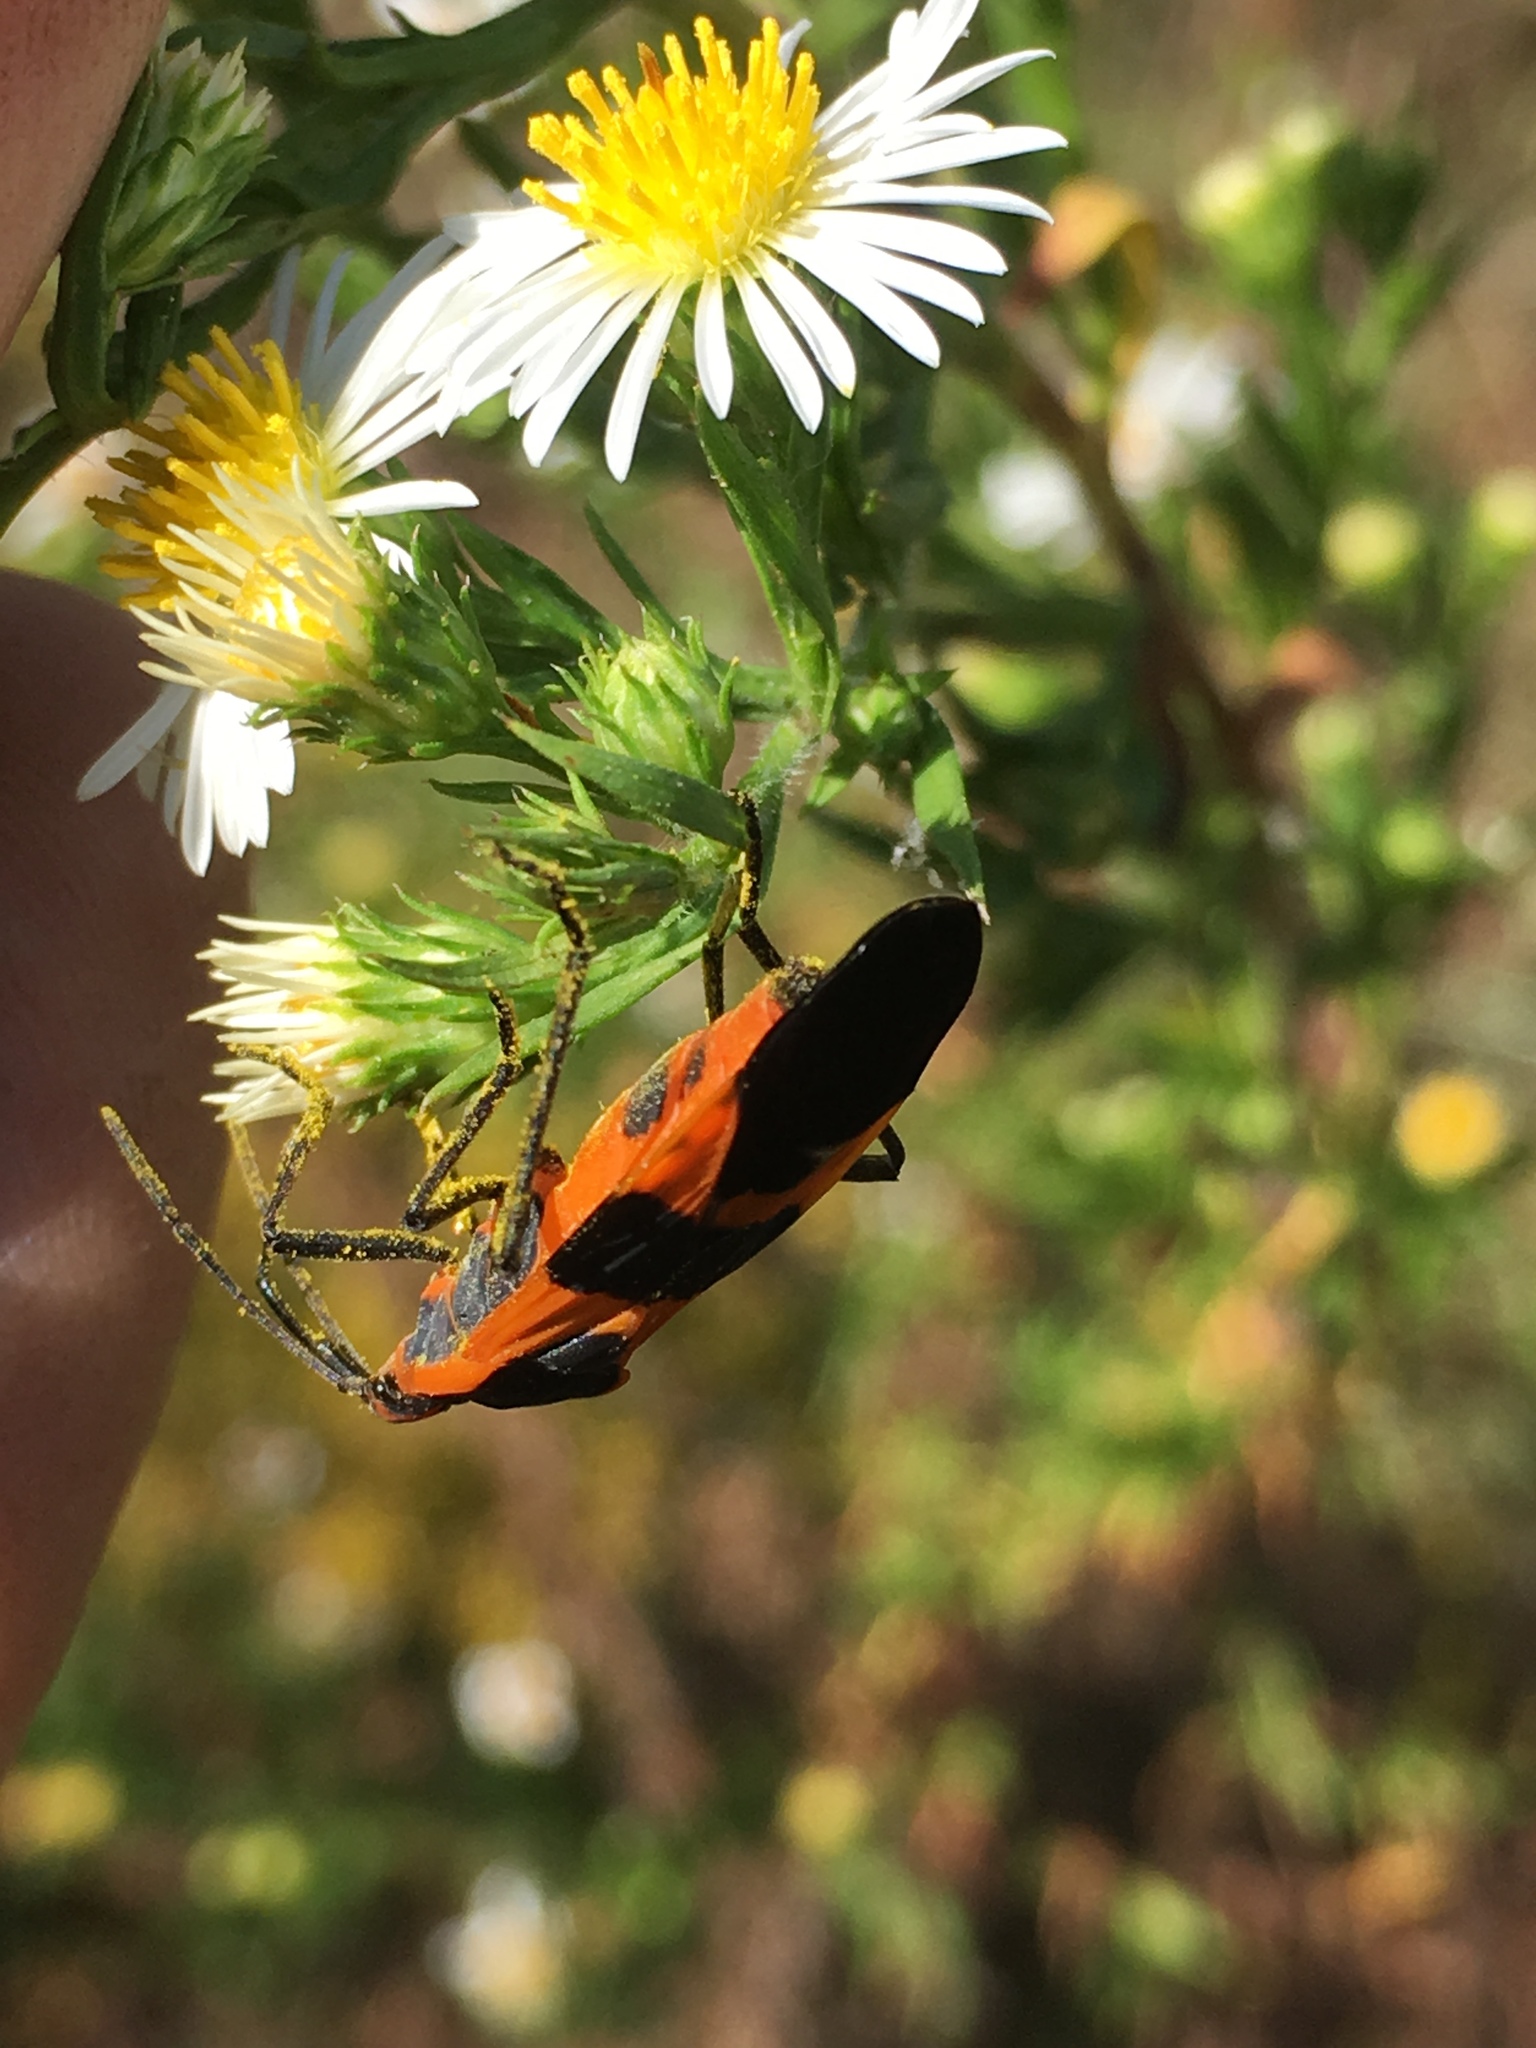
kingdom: Animalia
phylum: Arthropoda
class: Insecta
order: Hemiptera
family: Lygaeidae
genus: Oncopeltus
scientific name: Oncopeltus fasciatus
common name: Large milkweed bug
